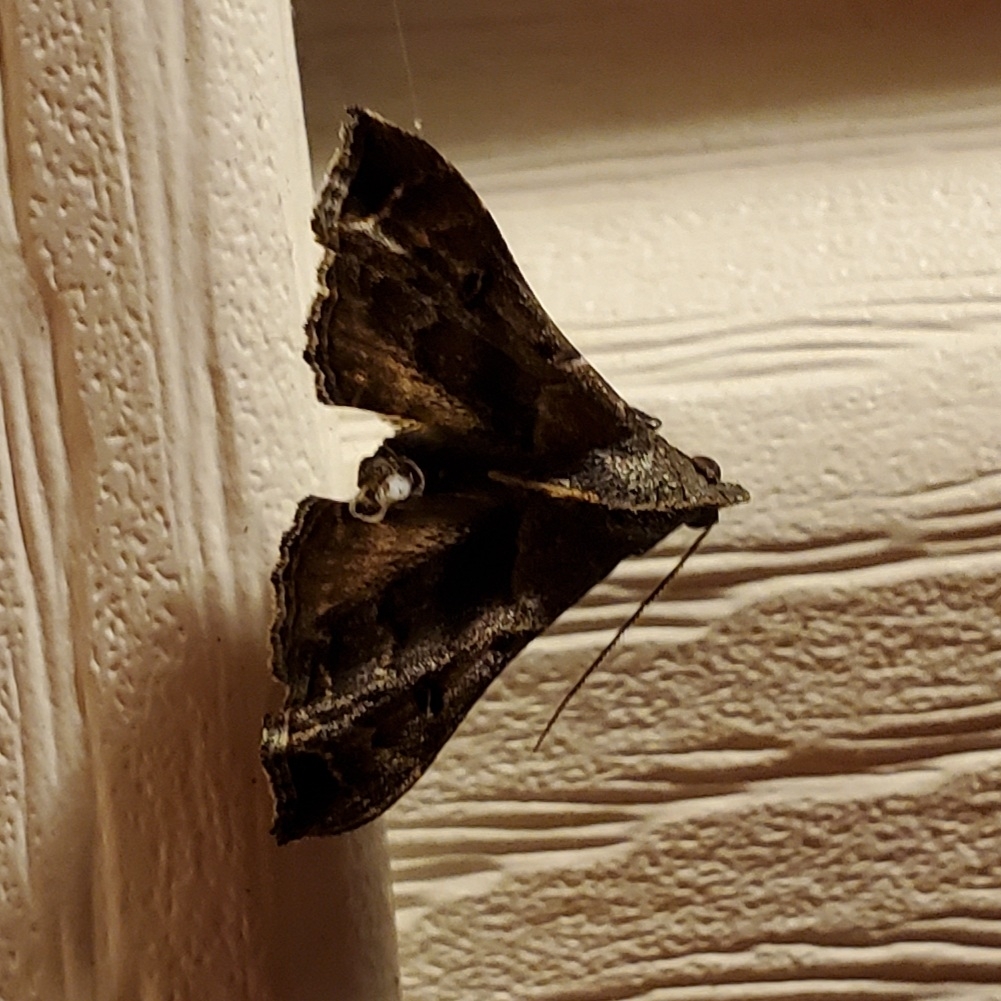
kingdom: Animalia
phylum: Arthropoda
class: Insecta
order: Lepidoptera
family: Erebidae
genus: Palthis
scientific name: Palthis asopialis
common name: Faint-spotted palthis moth
